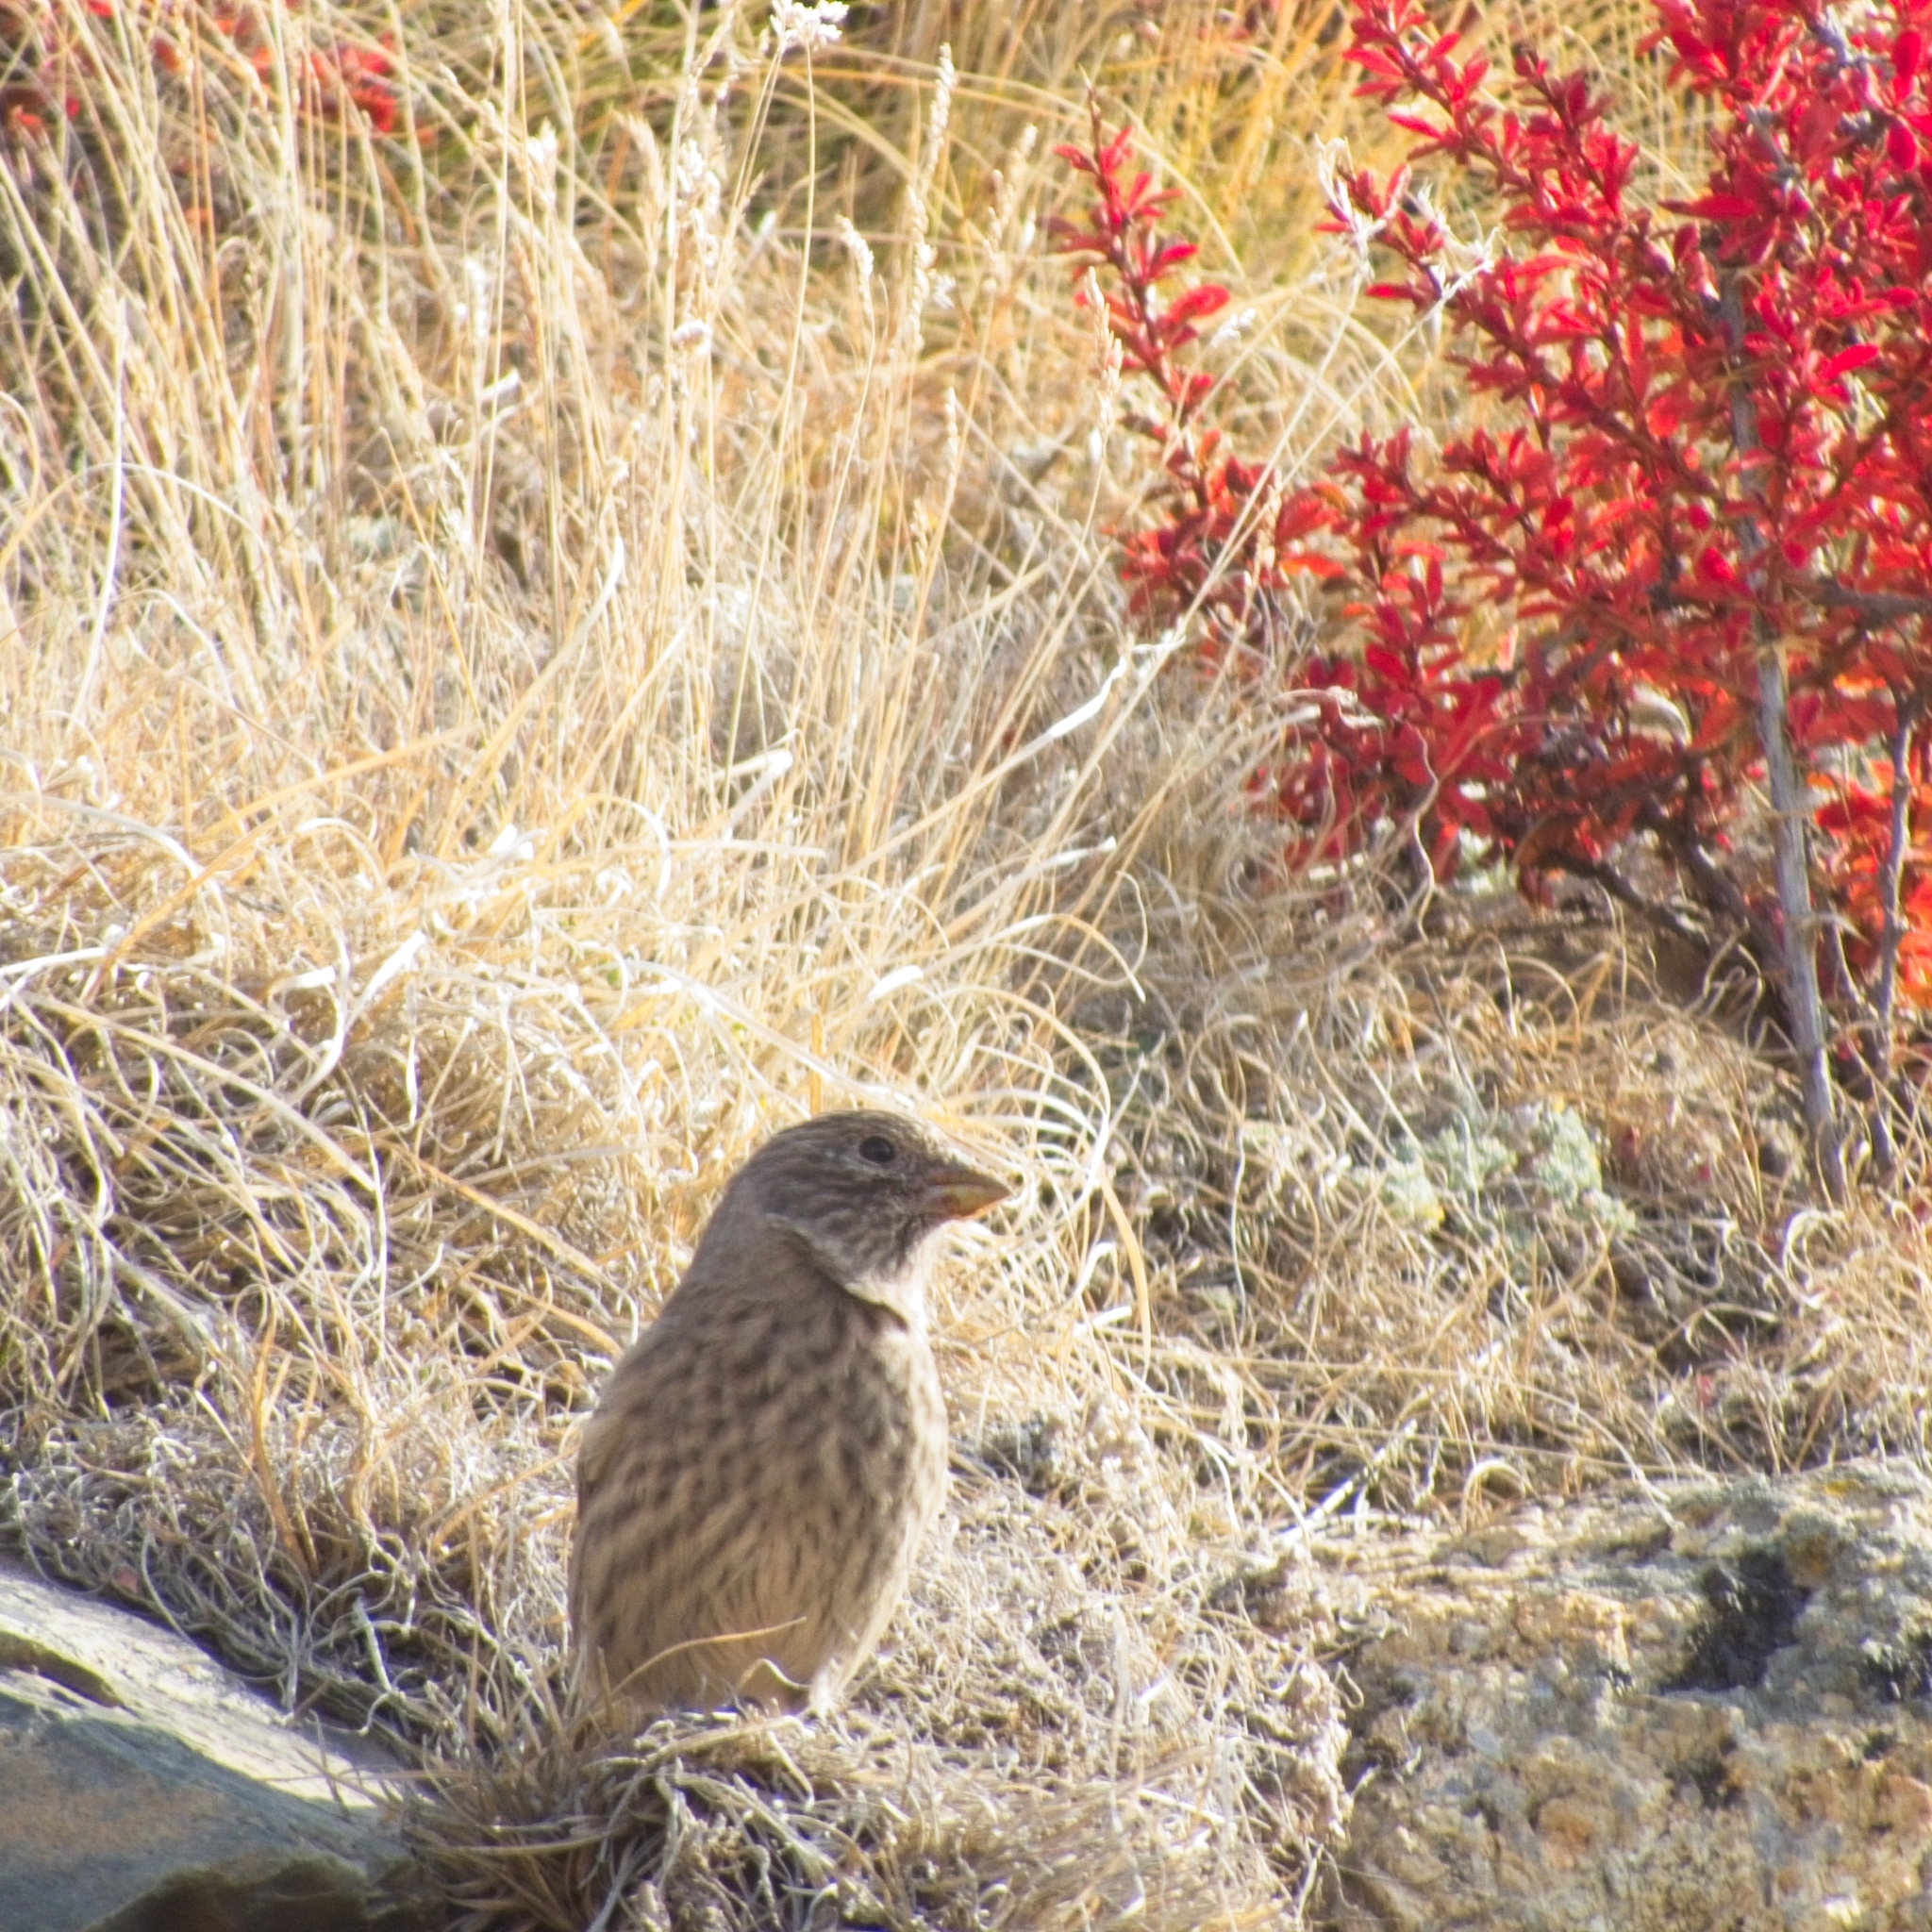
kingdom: Animalia
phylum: Chordata
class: Aves
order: Passeriformes
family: Fringillidae
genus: Carpodacus
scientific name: Carpodacus rubicilla
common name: Great rosefinch
